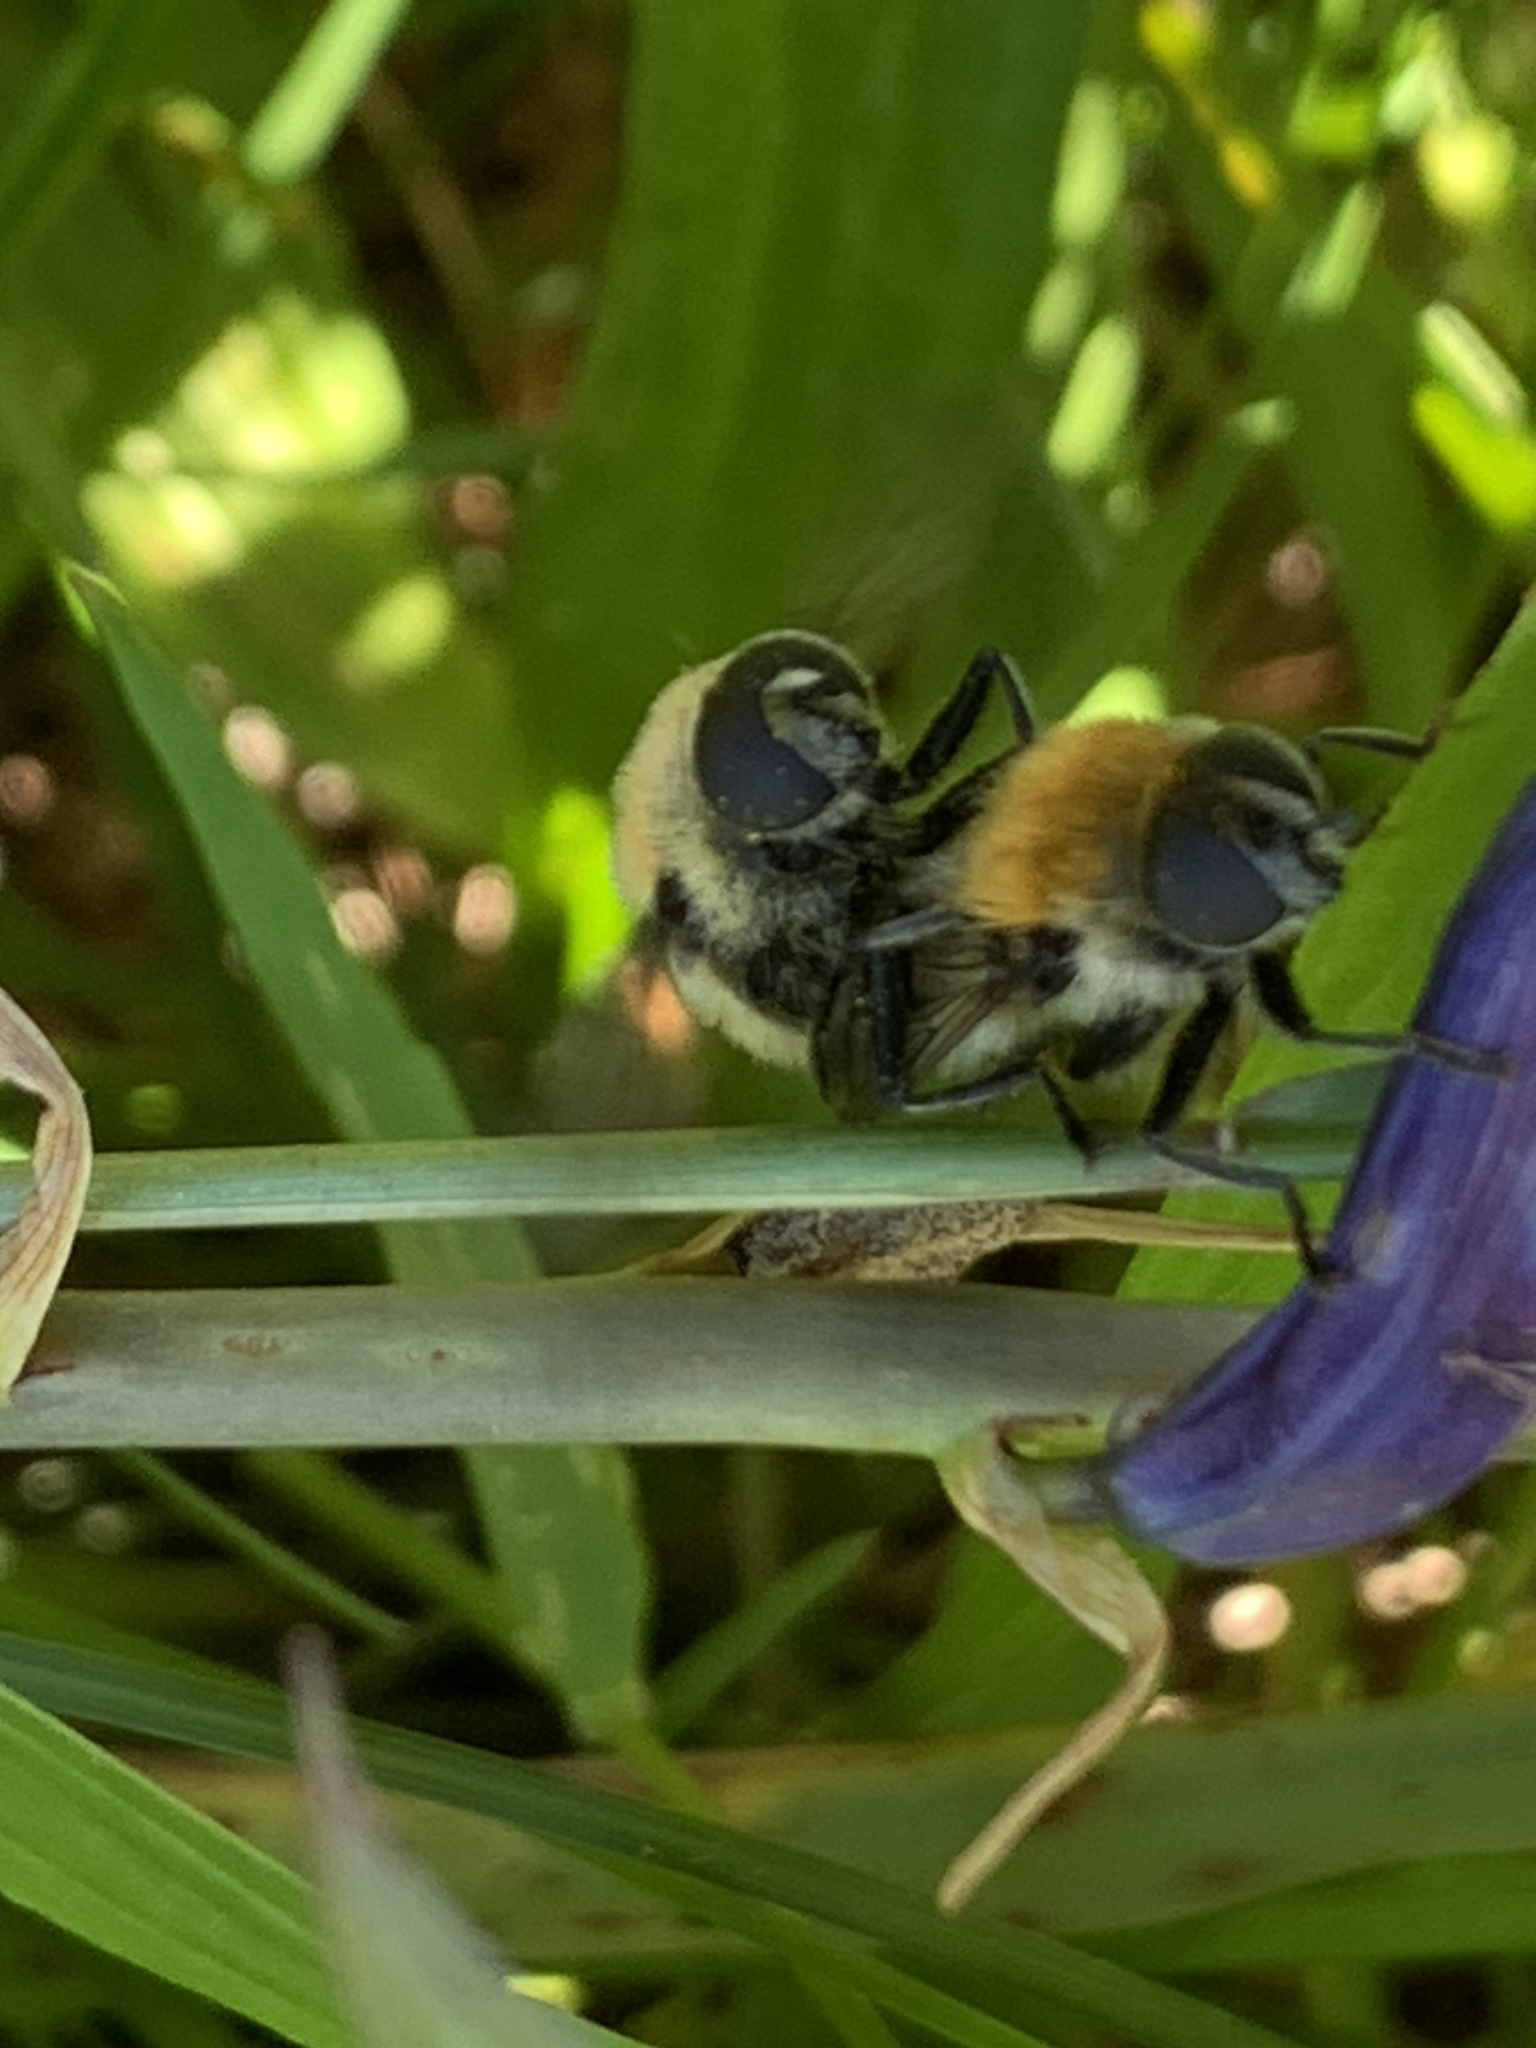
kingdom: Animalia
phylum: Arthropoda
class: Insecta
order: Diptera
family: Syrphidae
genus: Merodon
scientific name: Merodon equestris
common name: Greater bulb-fly
